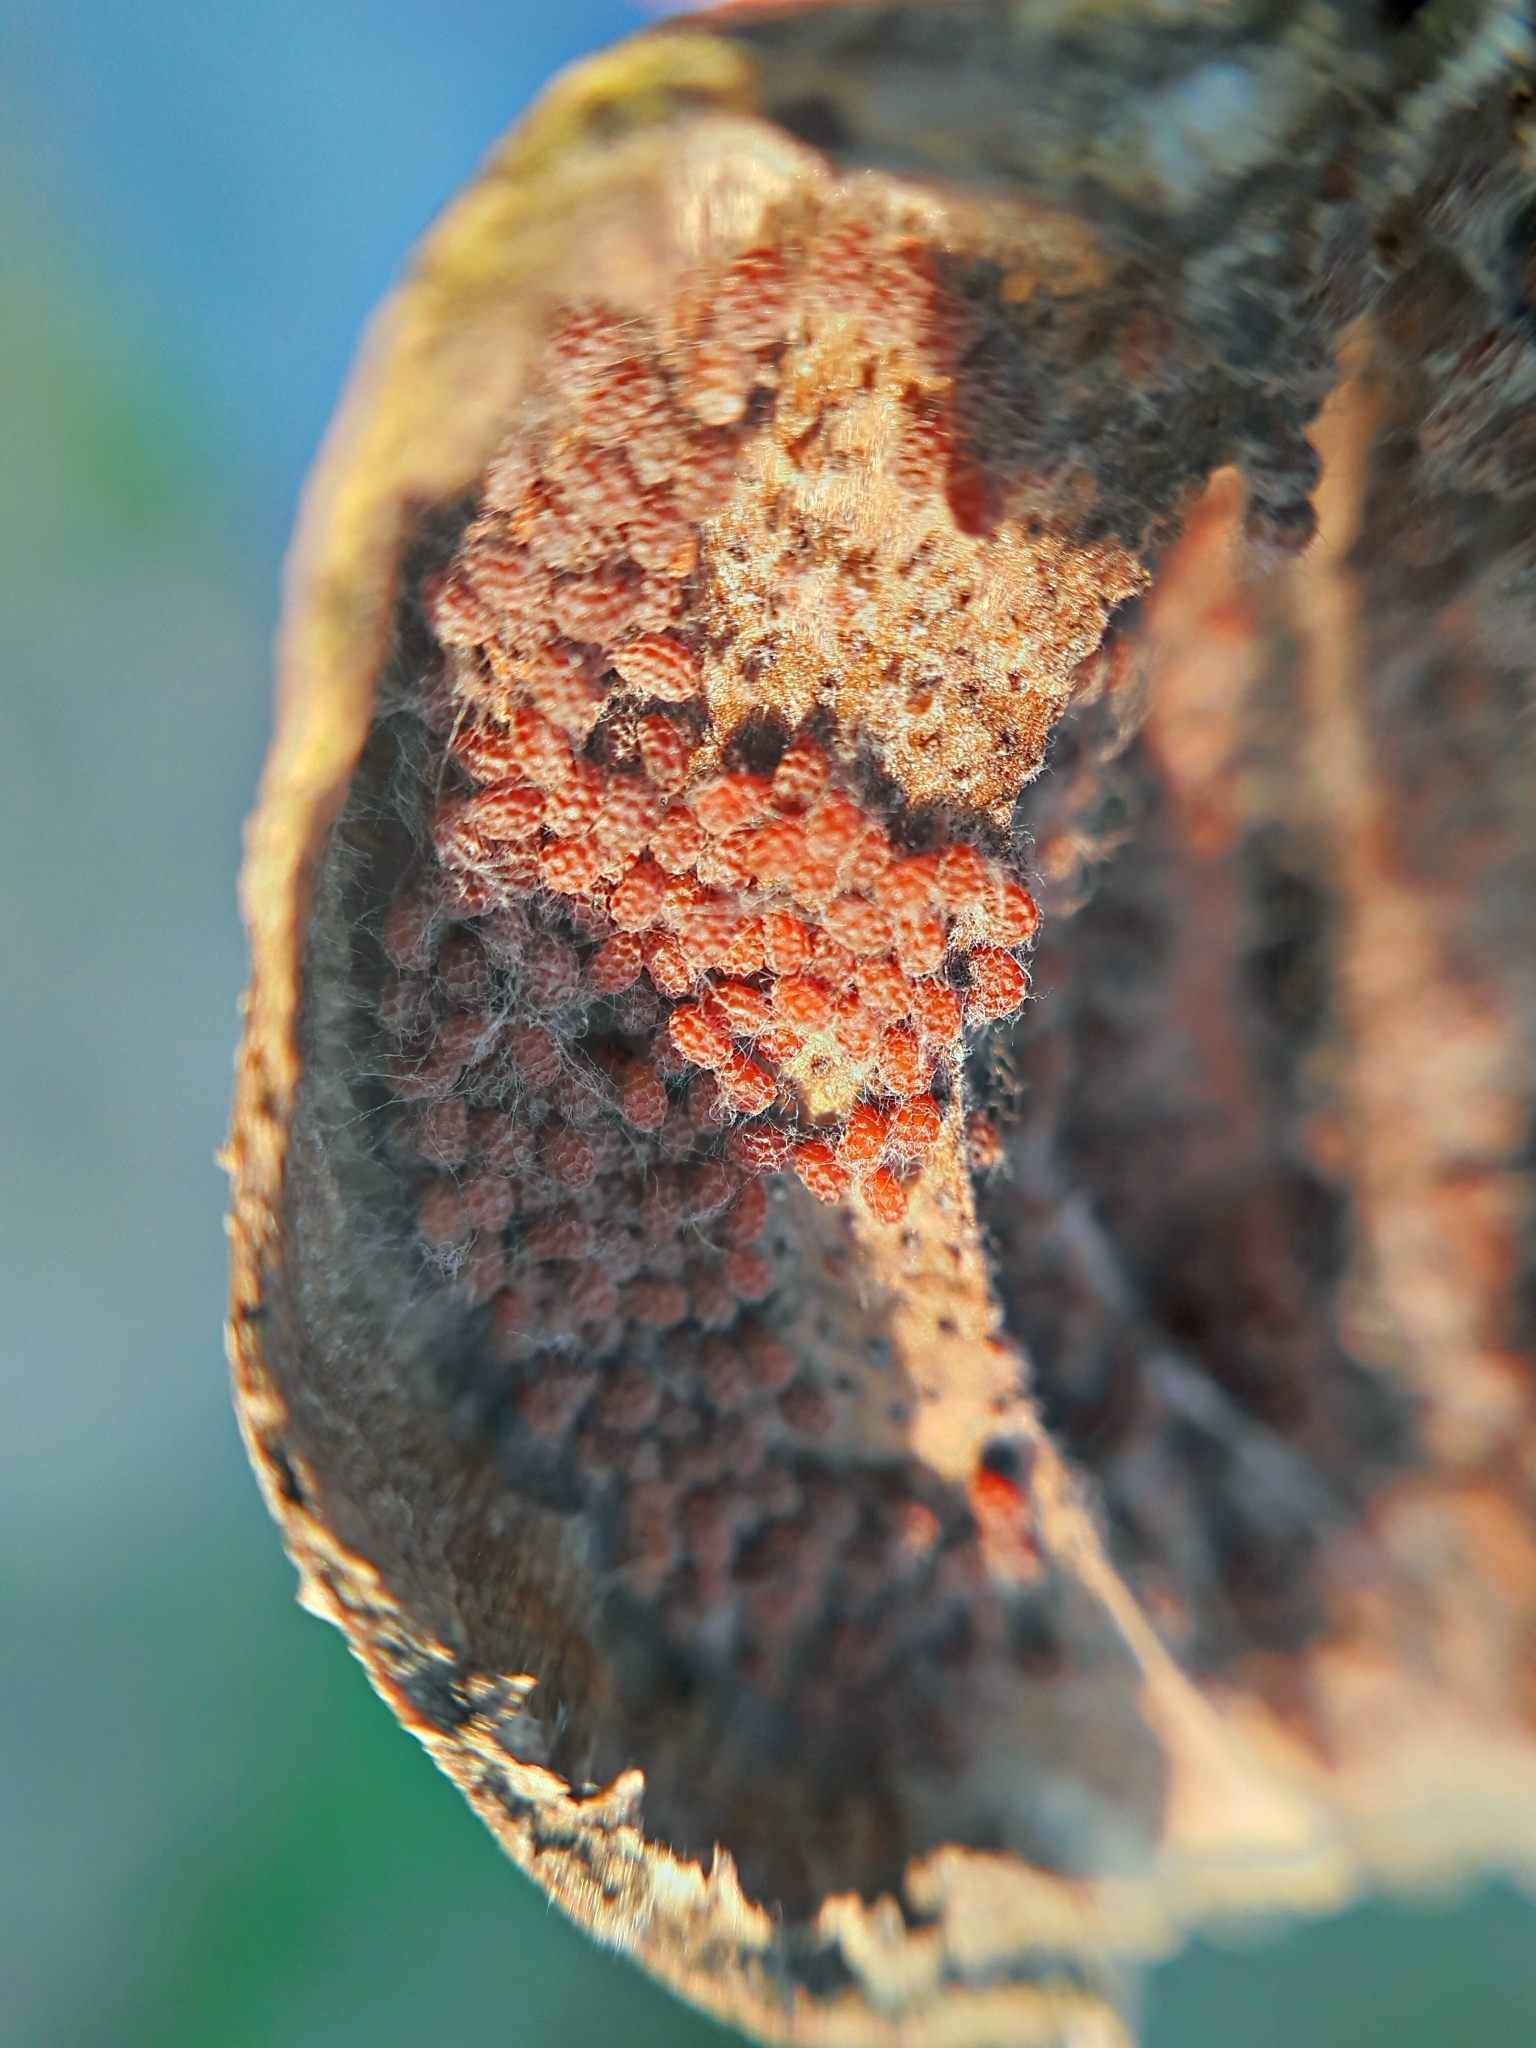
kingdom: Plantae
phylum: Tracheophyta
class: Magnoliopsida
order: Ranunculales
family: Papaveraceae
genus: Papaver
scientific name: Papaver somniferum
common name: Opium poppy
